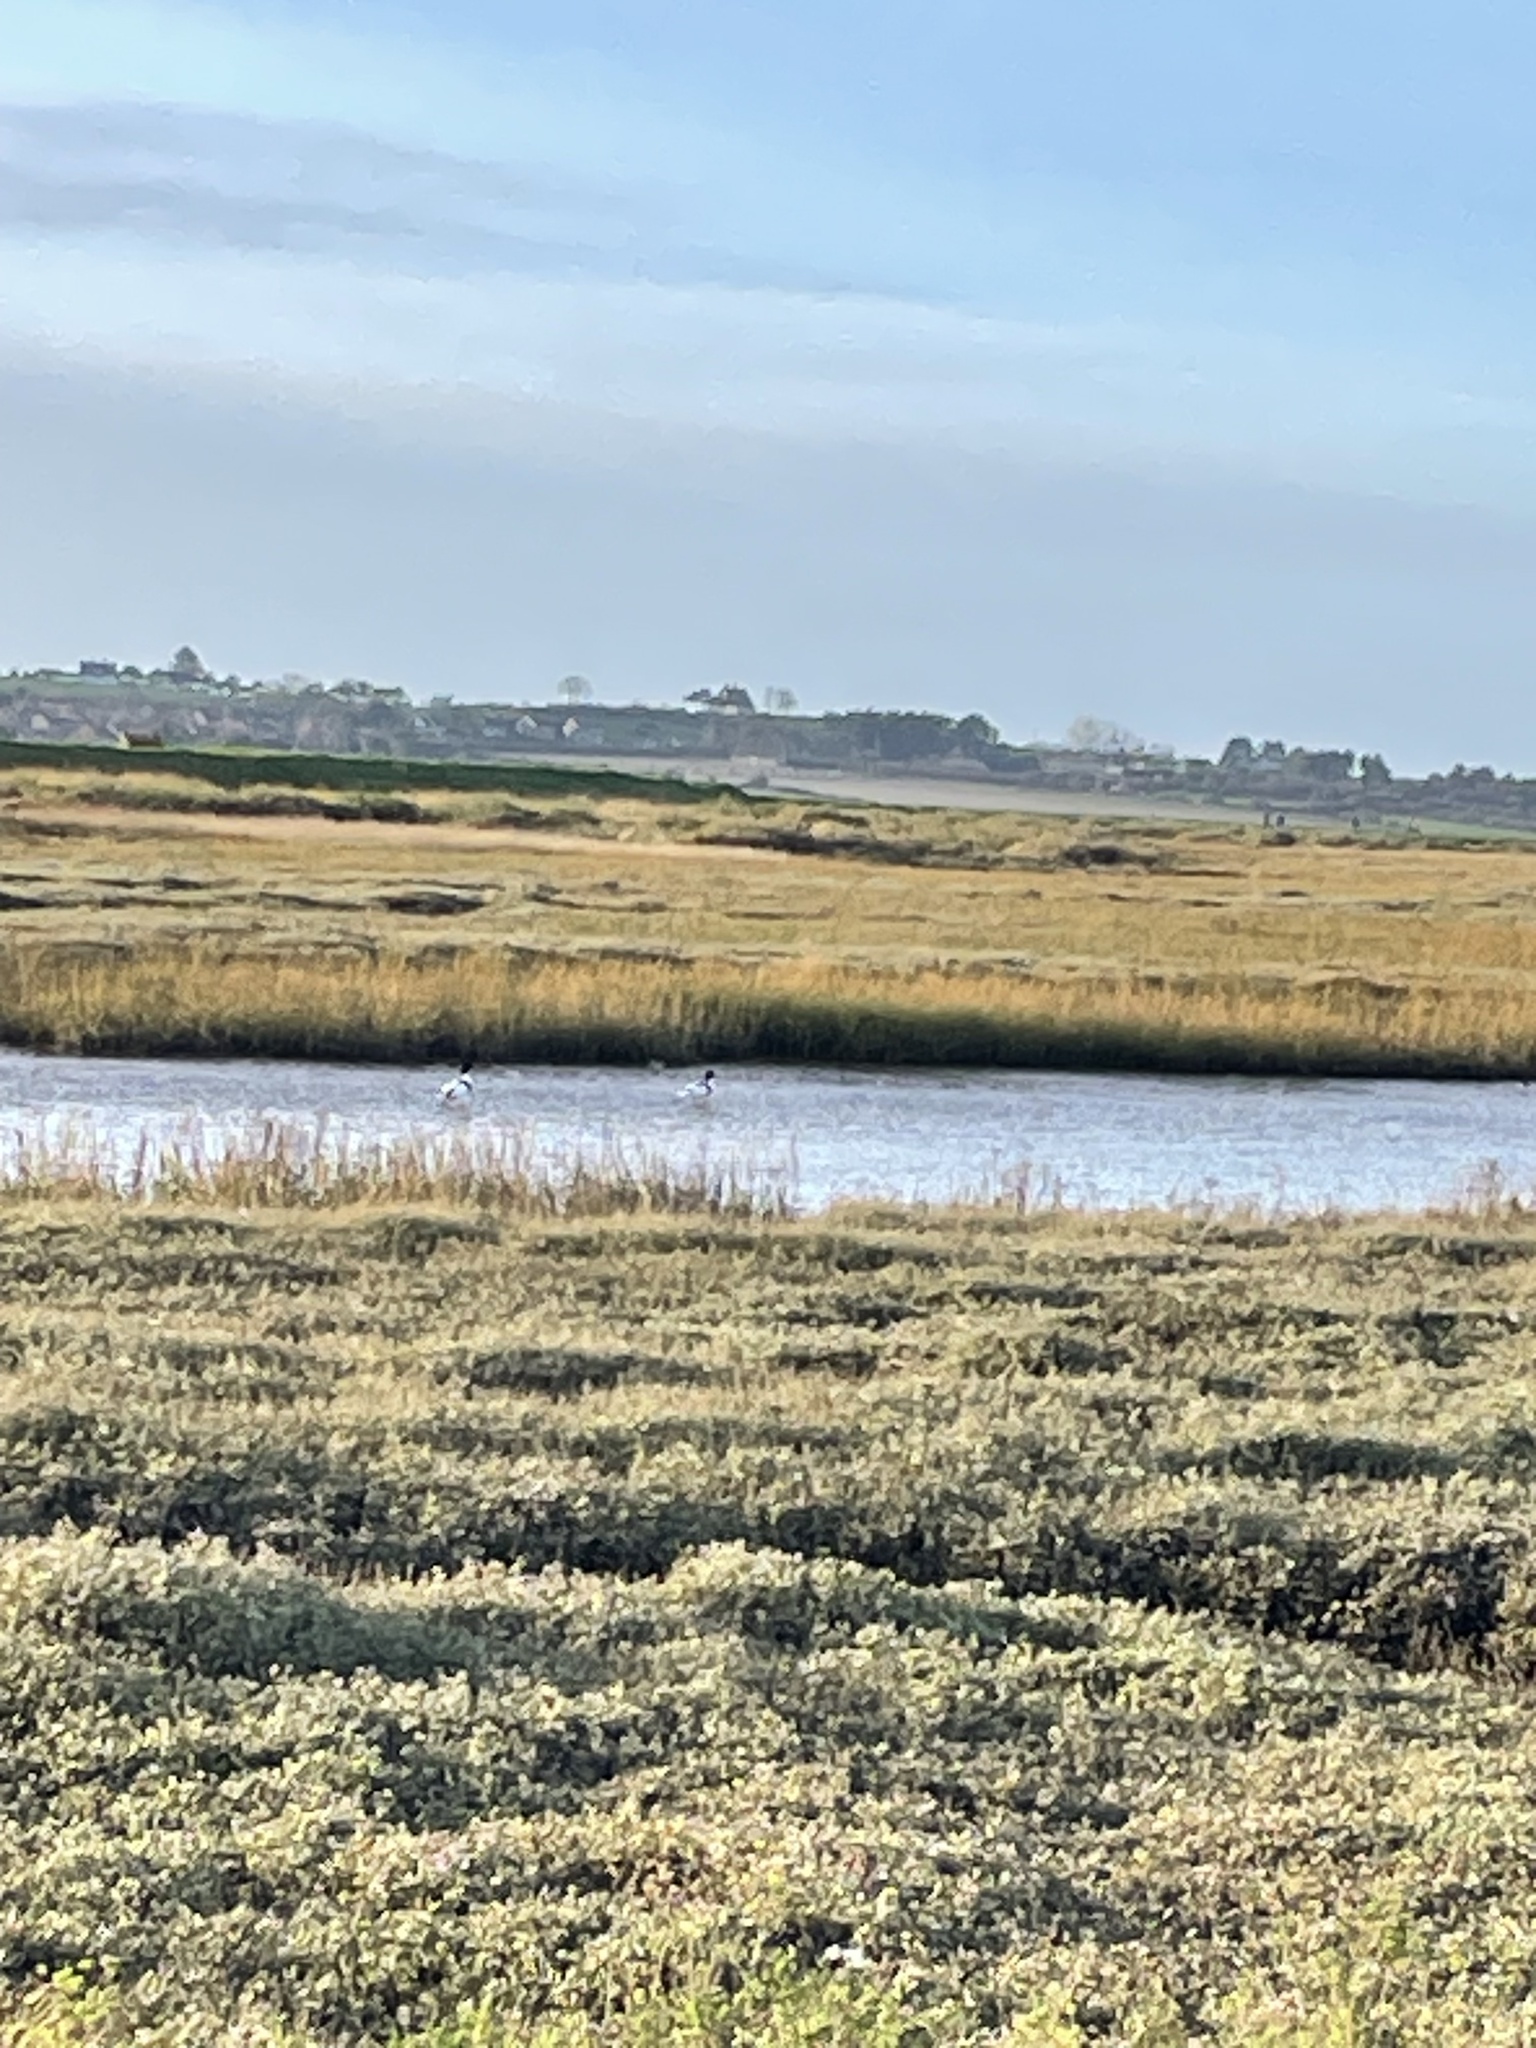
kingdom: Animalia
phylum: Chordata
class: Aves
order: Anseriformes
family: Anatidae
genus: Tadorna
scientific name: Tadorna tadorna
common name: Common shelduck
